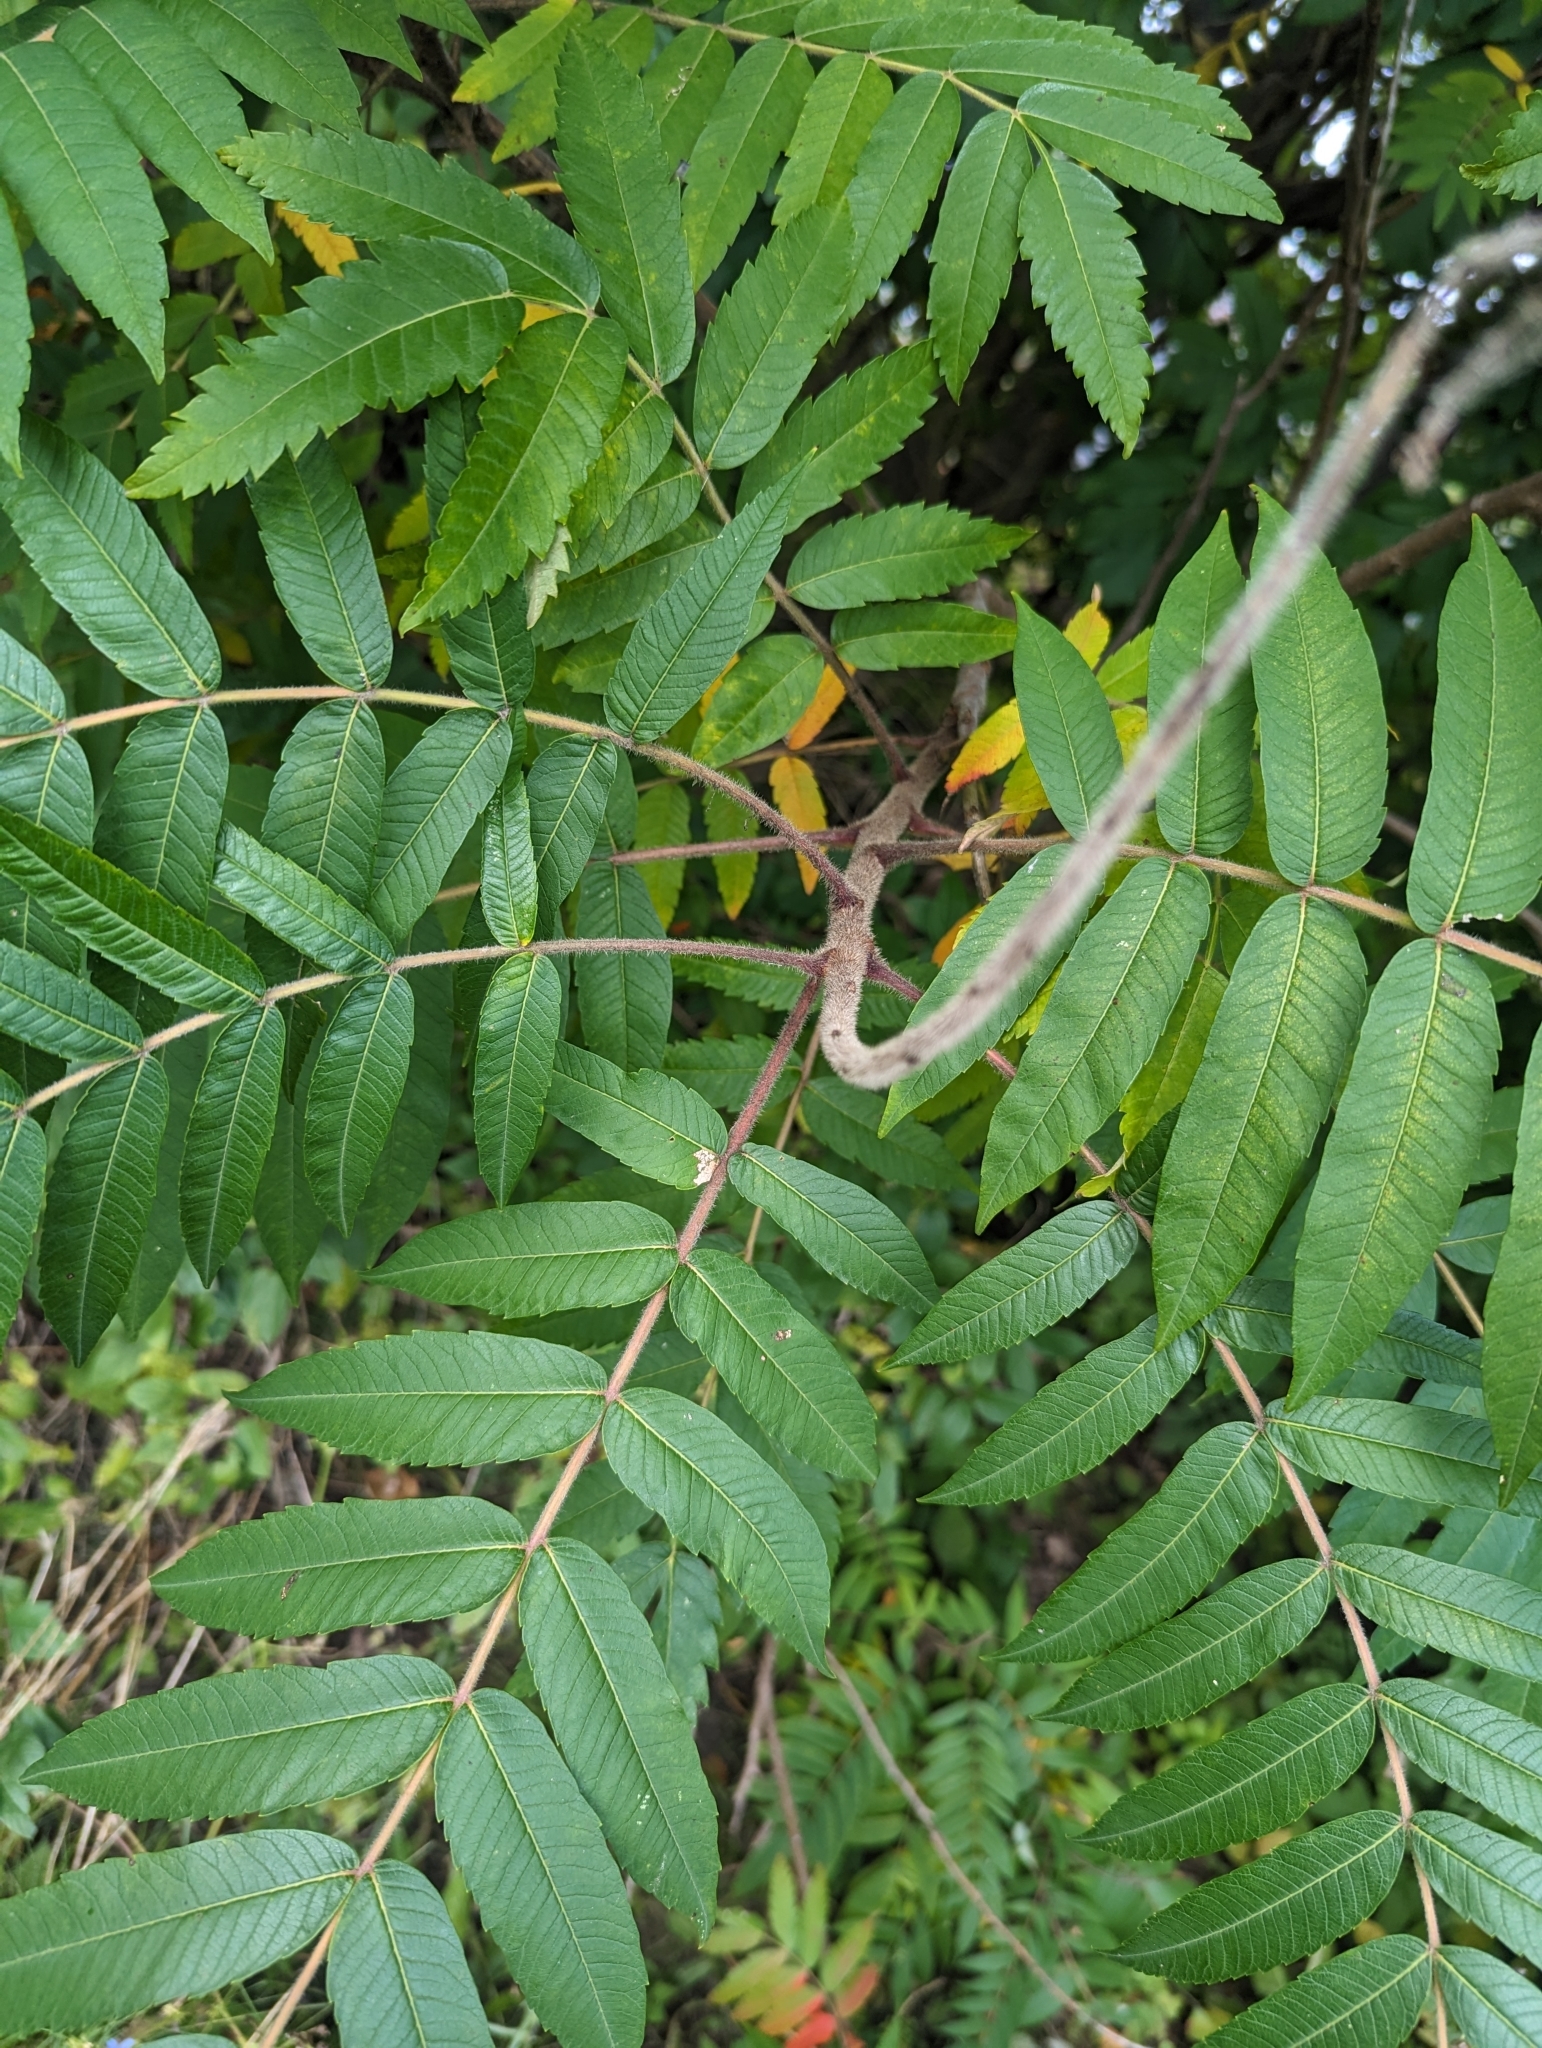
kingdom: Plantae
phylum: Tracheophyta
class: Magnoliopsida
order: Sapindales
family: Anacardiaceae
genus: Rhus
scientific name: Rhus typhina
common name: Staghorn sumac
